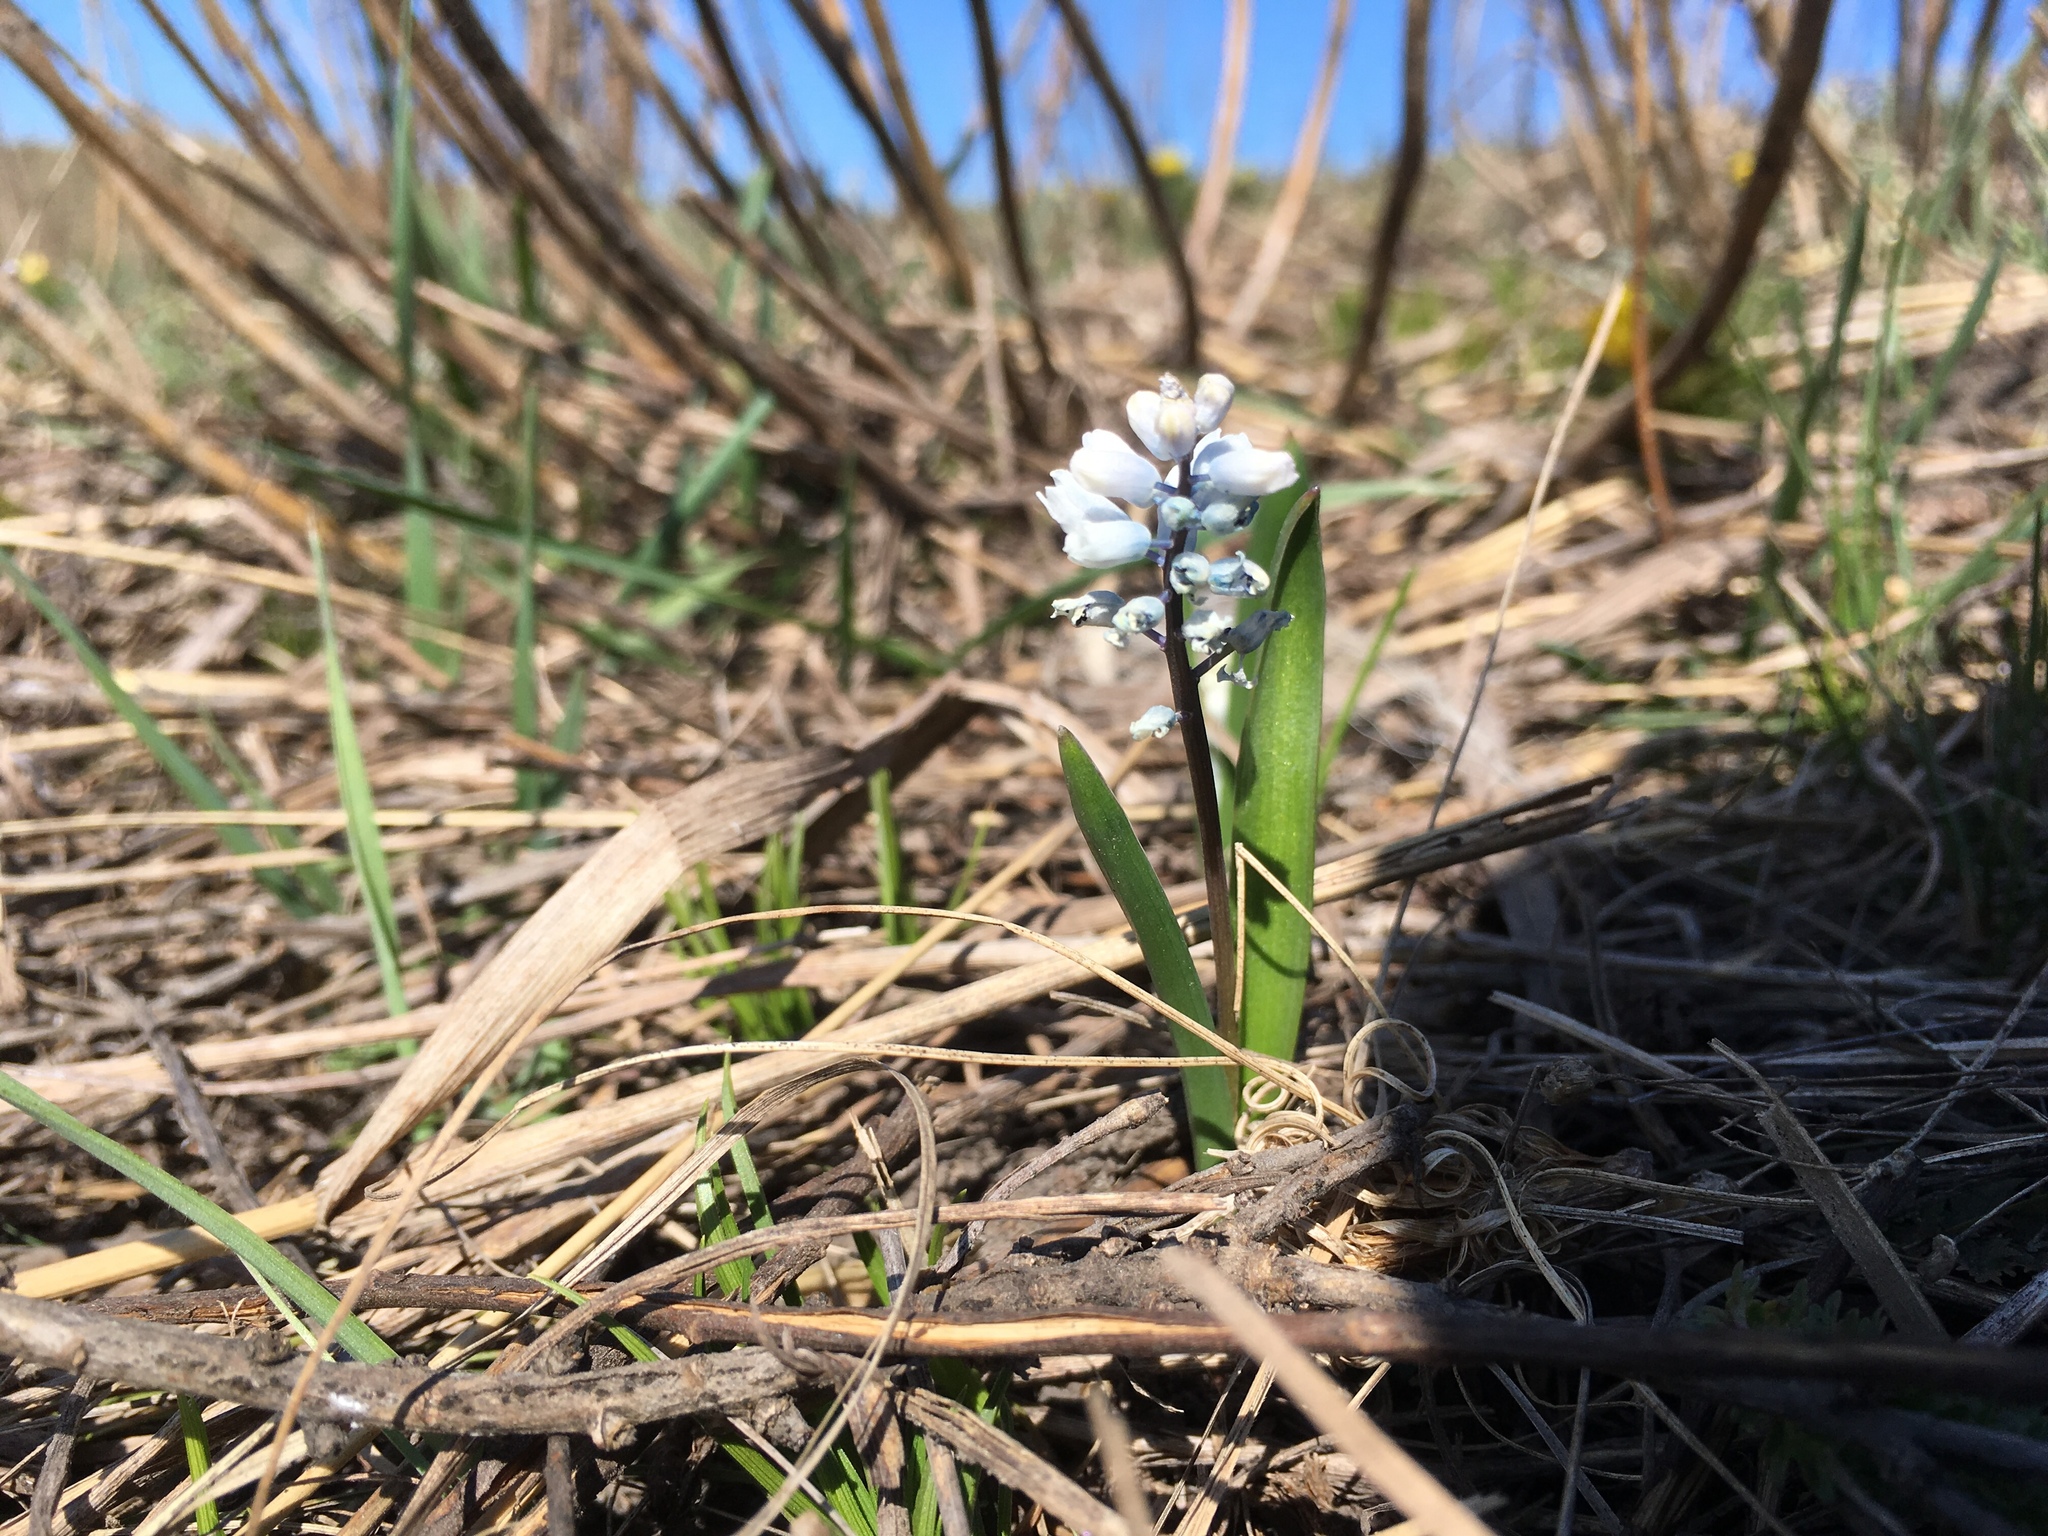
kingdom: Plantae
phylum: Tracheophyta
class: Liliopsida
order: Asparagales
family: Asparagaceae
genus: Hyacinthella
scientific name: Hyacinthella leucophaea
